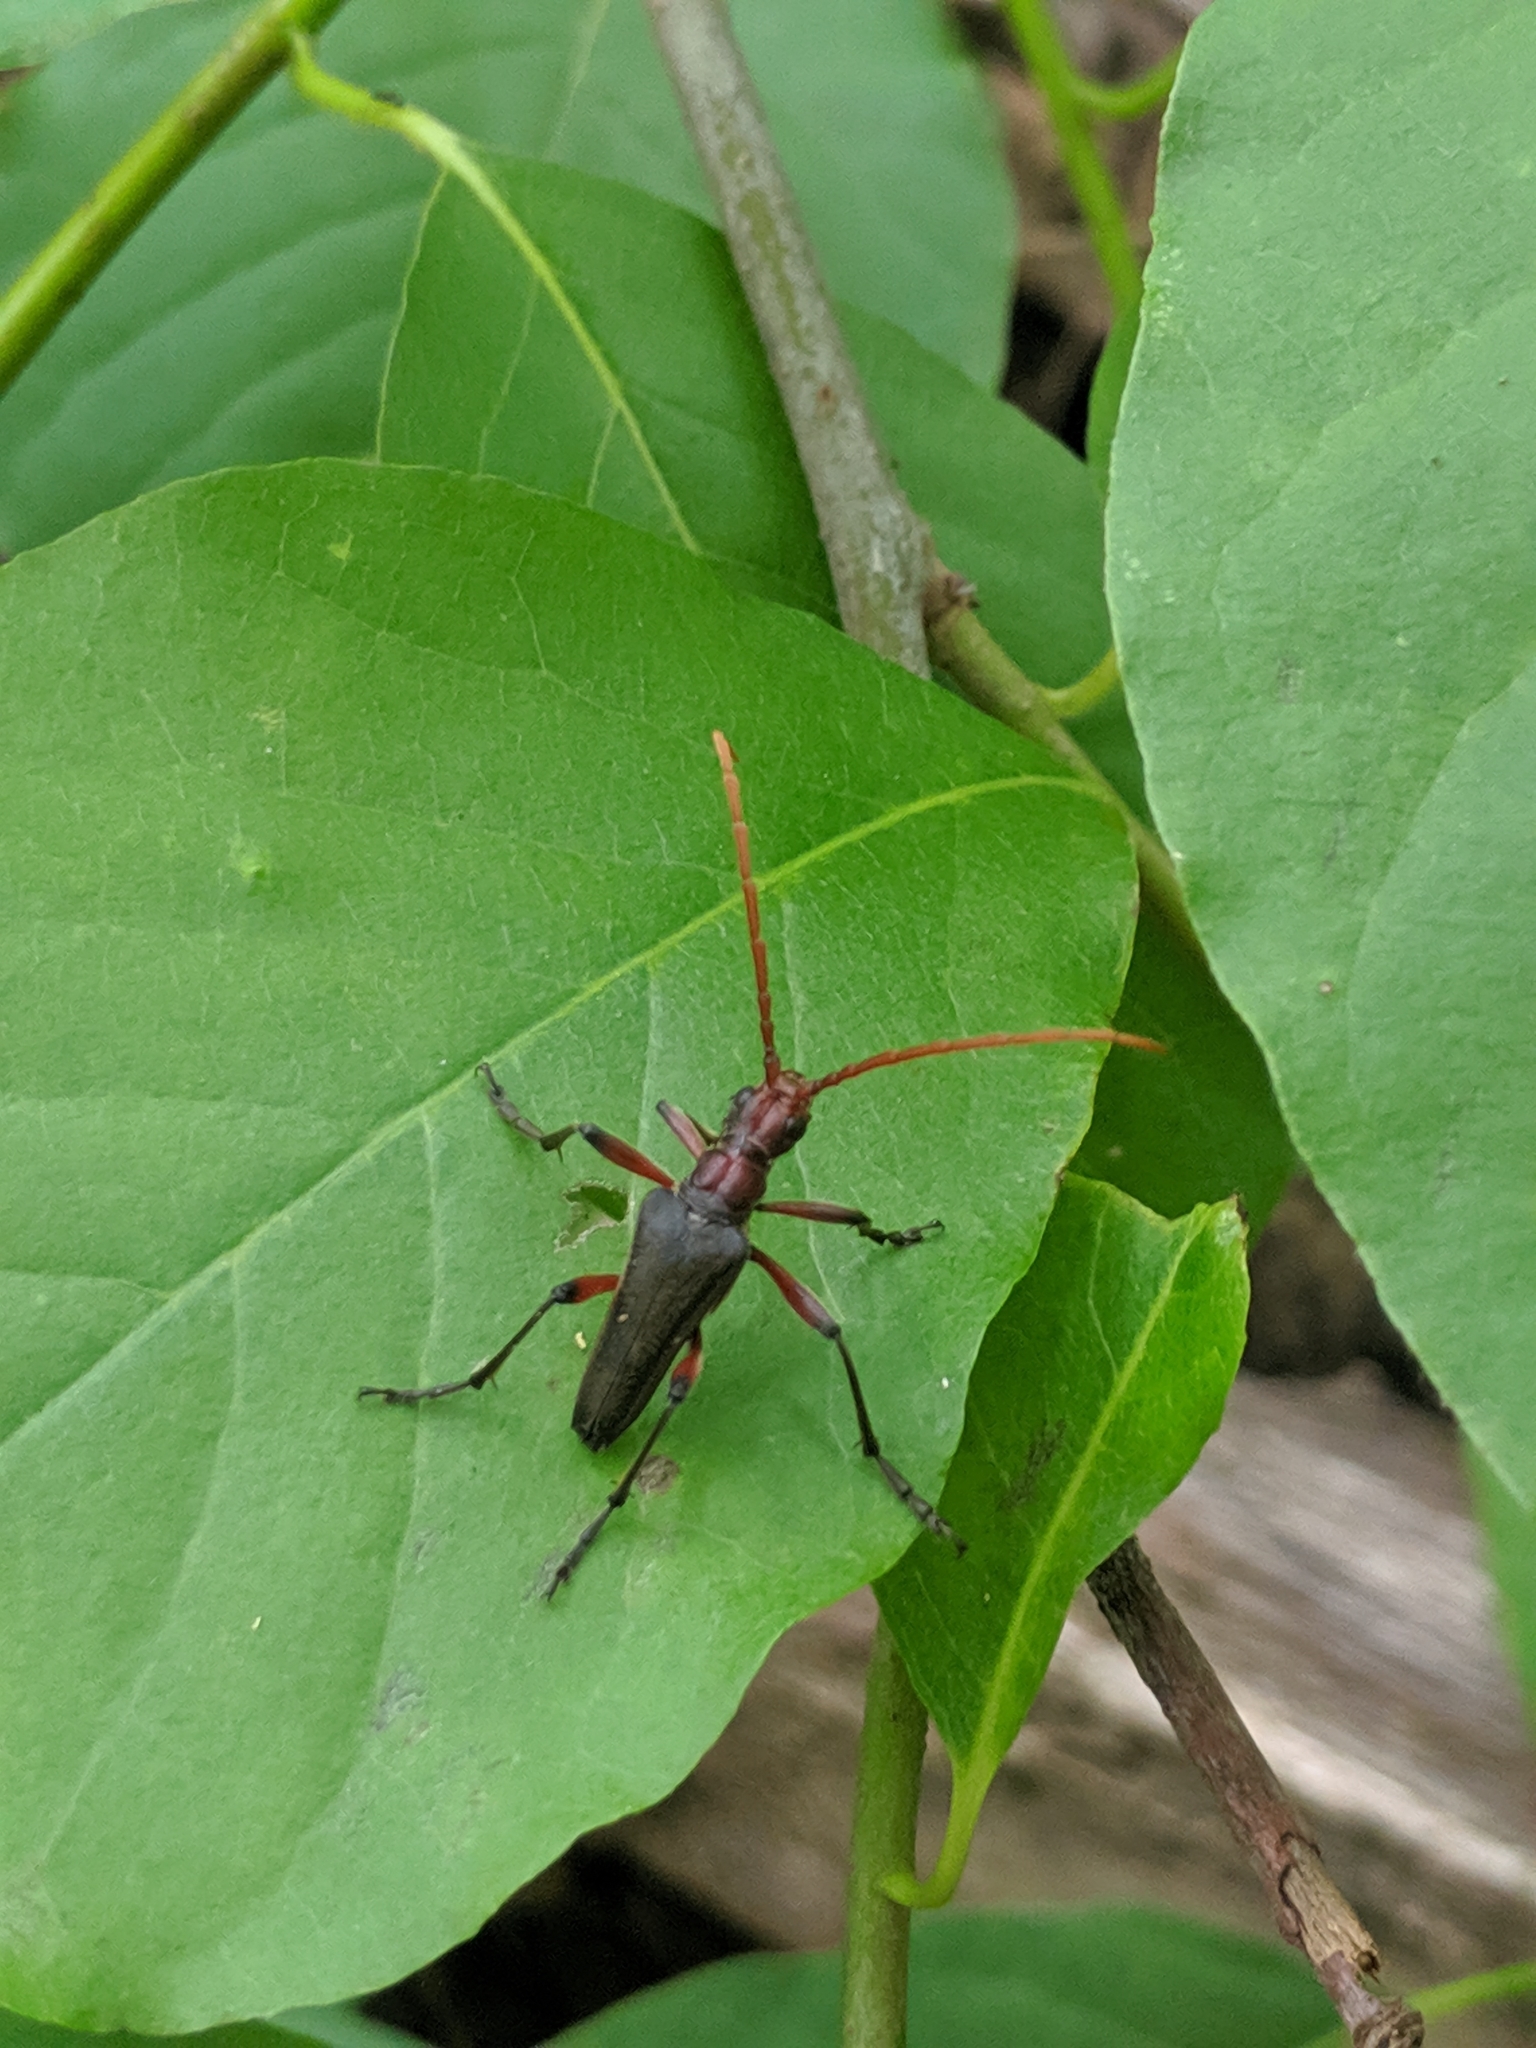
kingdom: Animalia
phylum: Arthropoda
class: Insecta
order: Coleoptera
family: Cerambycidae
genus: Stenocorus
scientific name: Stenocorus cylindricollis
